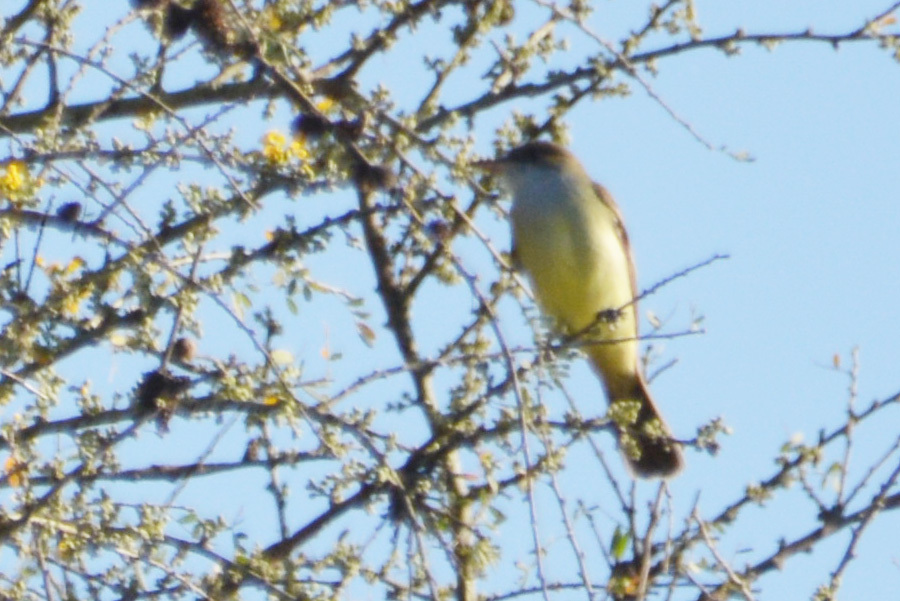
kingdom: Animalia
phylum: Chordata
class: Aves
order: Passeriformes
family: Tyrannidae
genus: Myiarchus
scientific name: Myiarchus swainsoni
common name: Swainson's flycatcher
